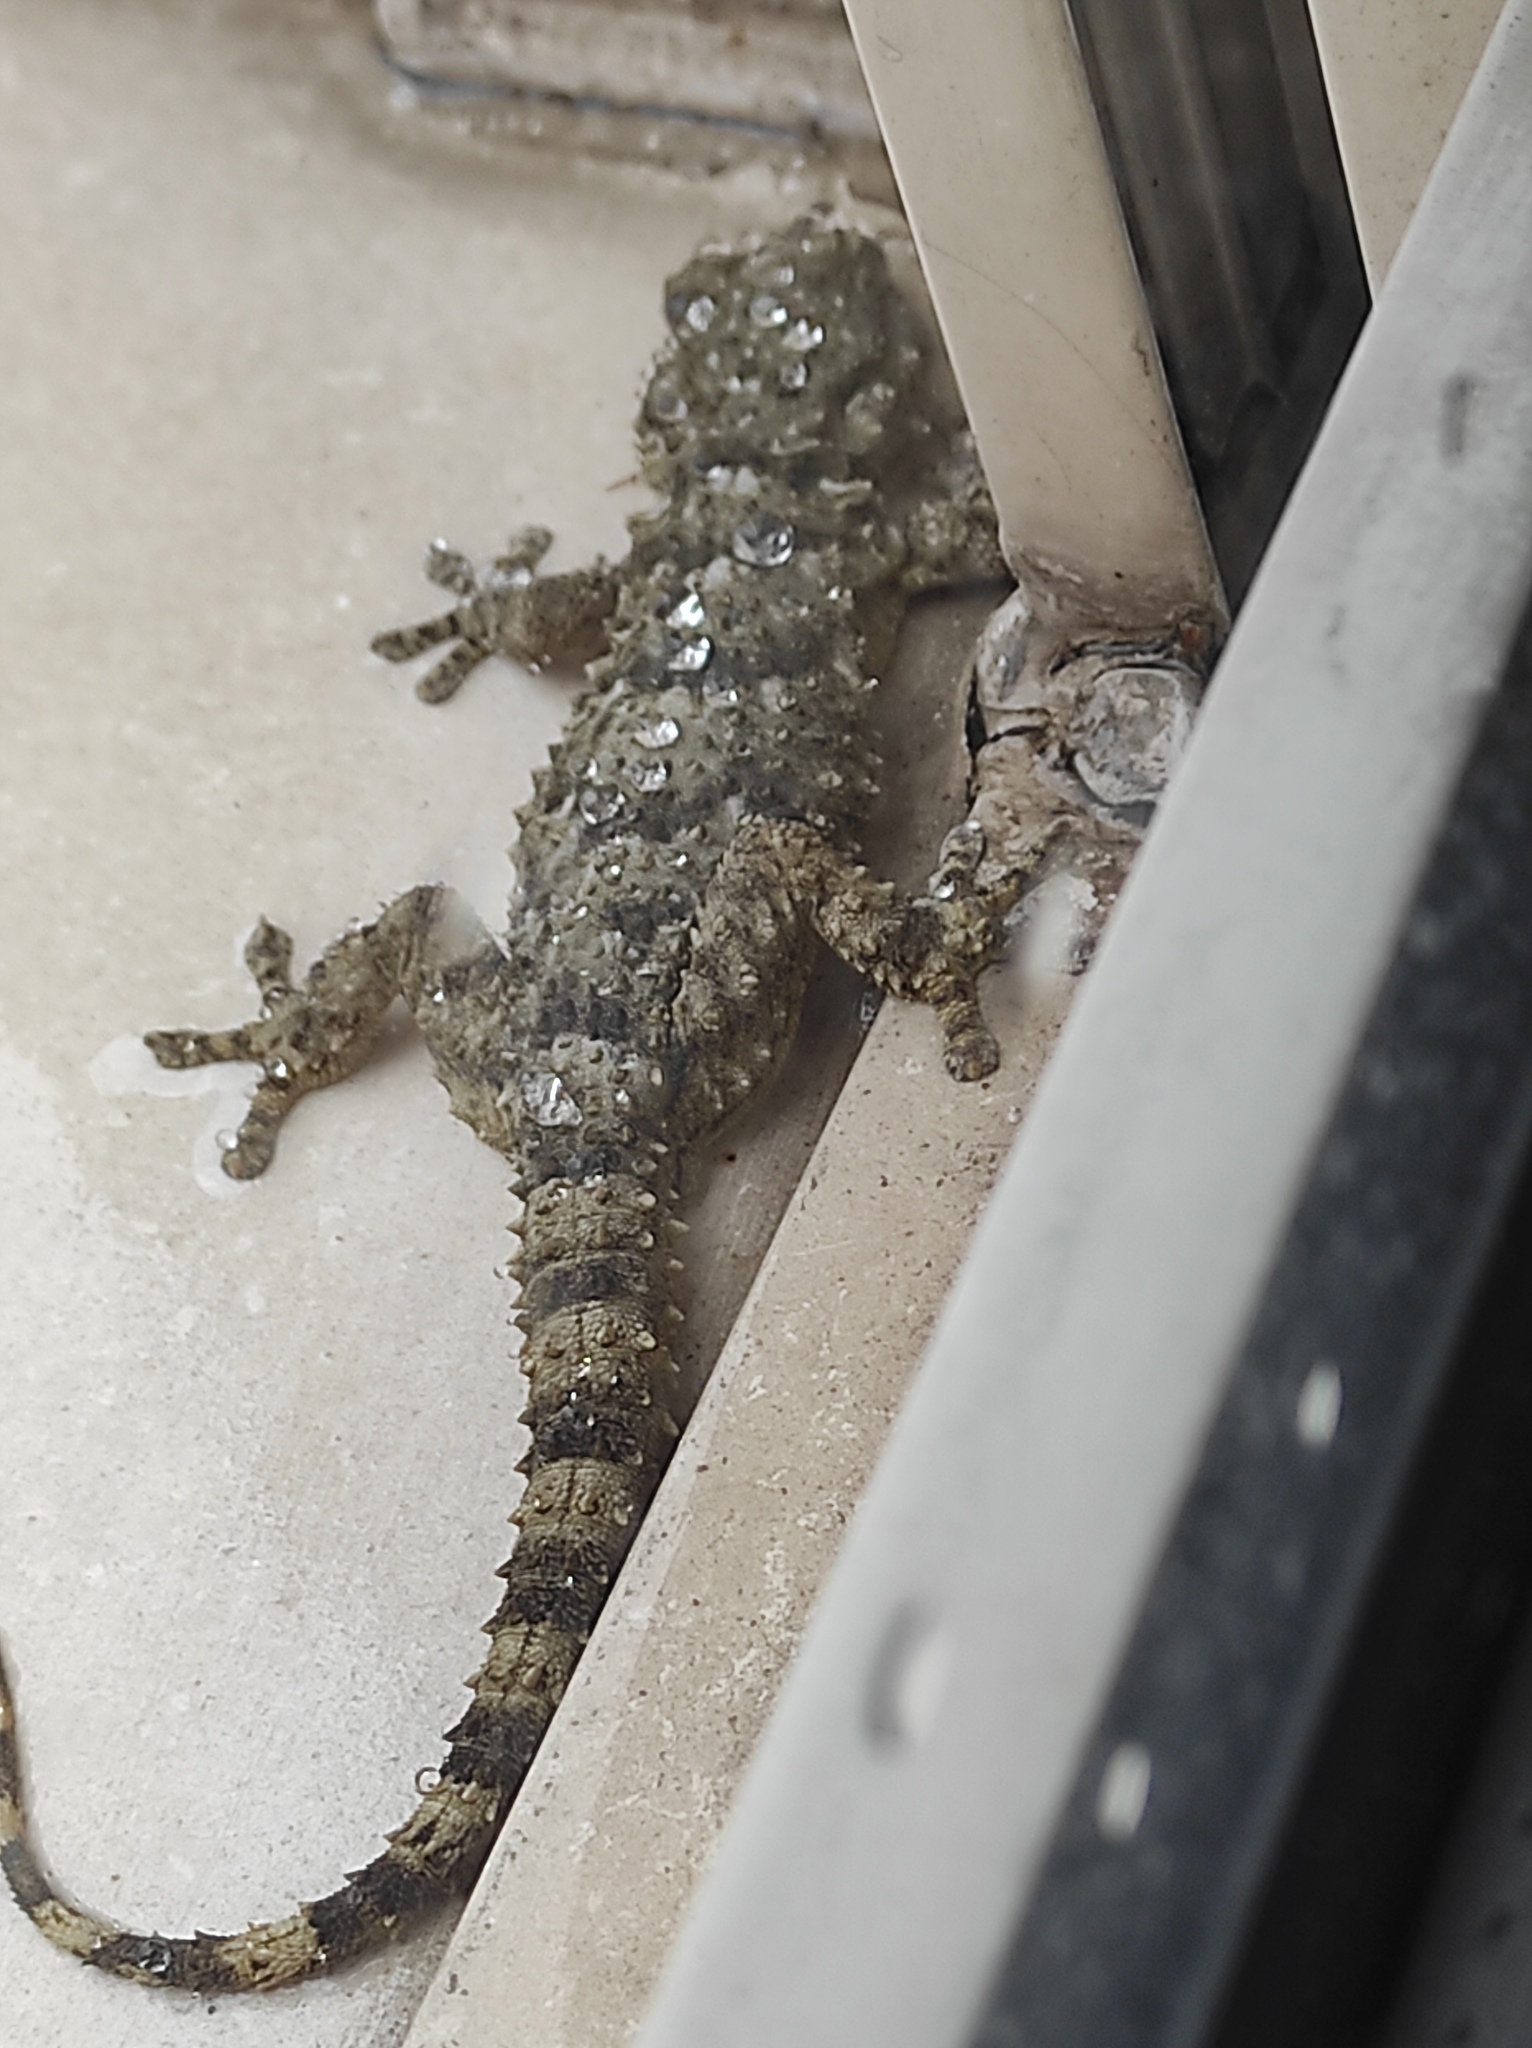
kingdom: Animalia
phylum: Chordata
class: Squamata
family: Phyllodactylidae
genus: Tarentola
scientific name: Tarentola mauritanica
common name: Moorish gecko
